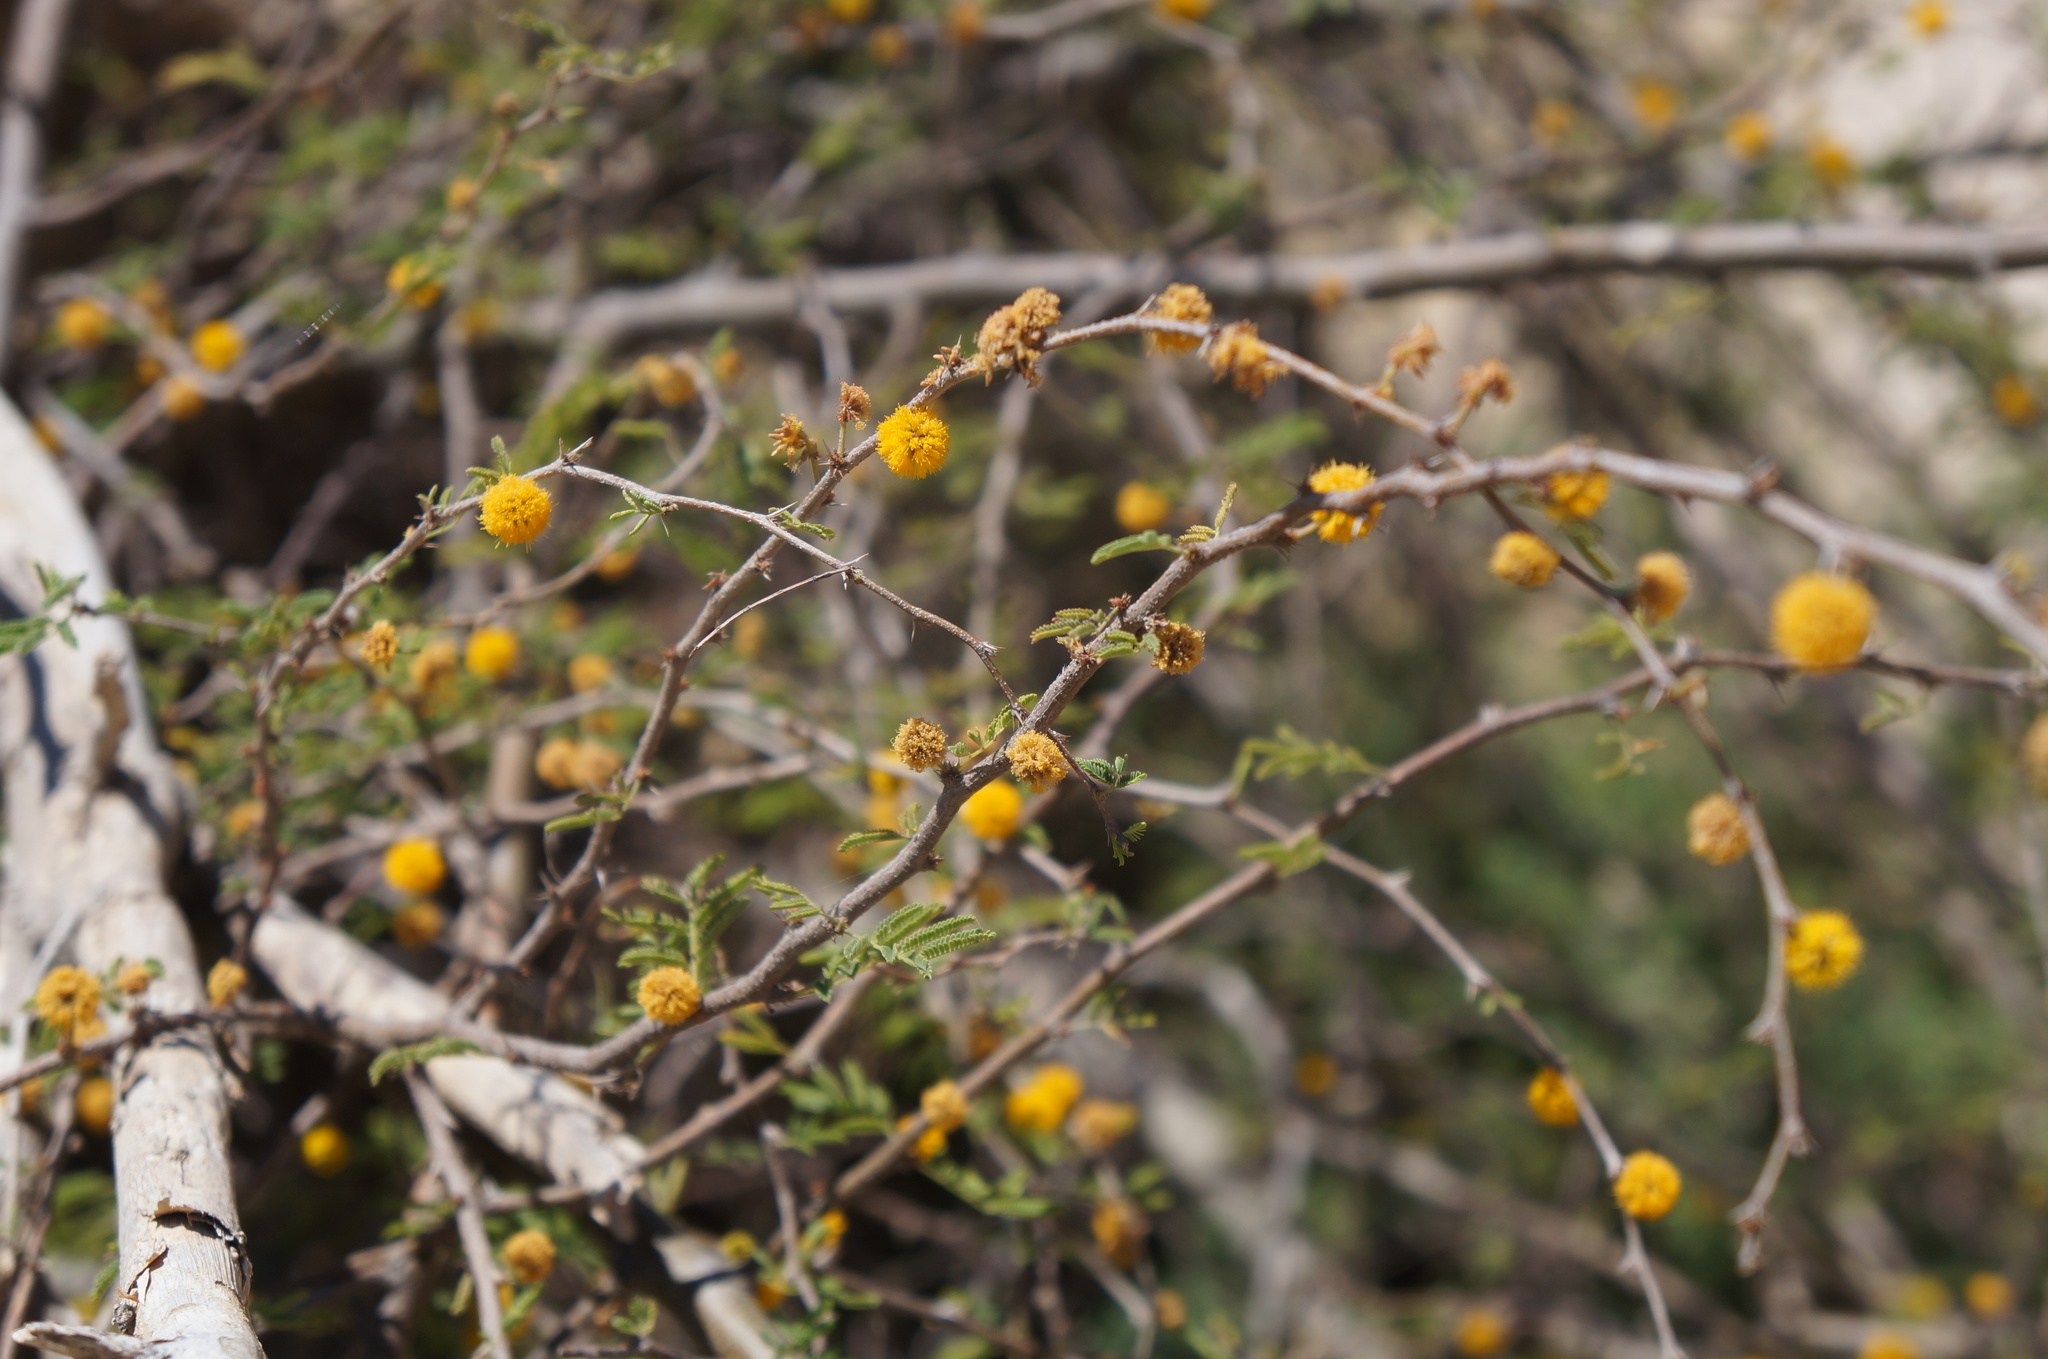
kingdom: Plantae
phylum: Tracheophyta
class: Magnoliopsida
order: Fabales
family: Fabaceae
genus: Vachellia
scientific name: Vachellia farnesiana
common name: Sweet acacia
